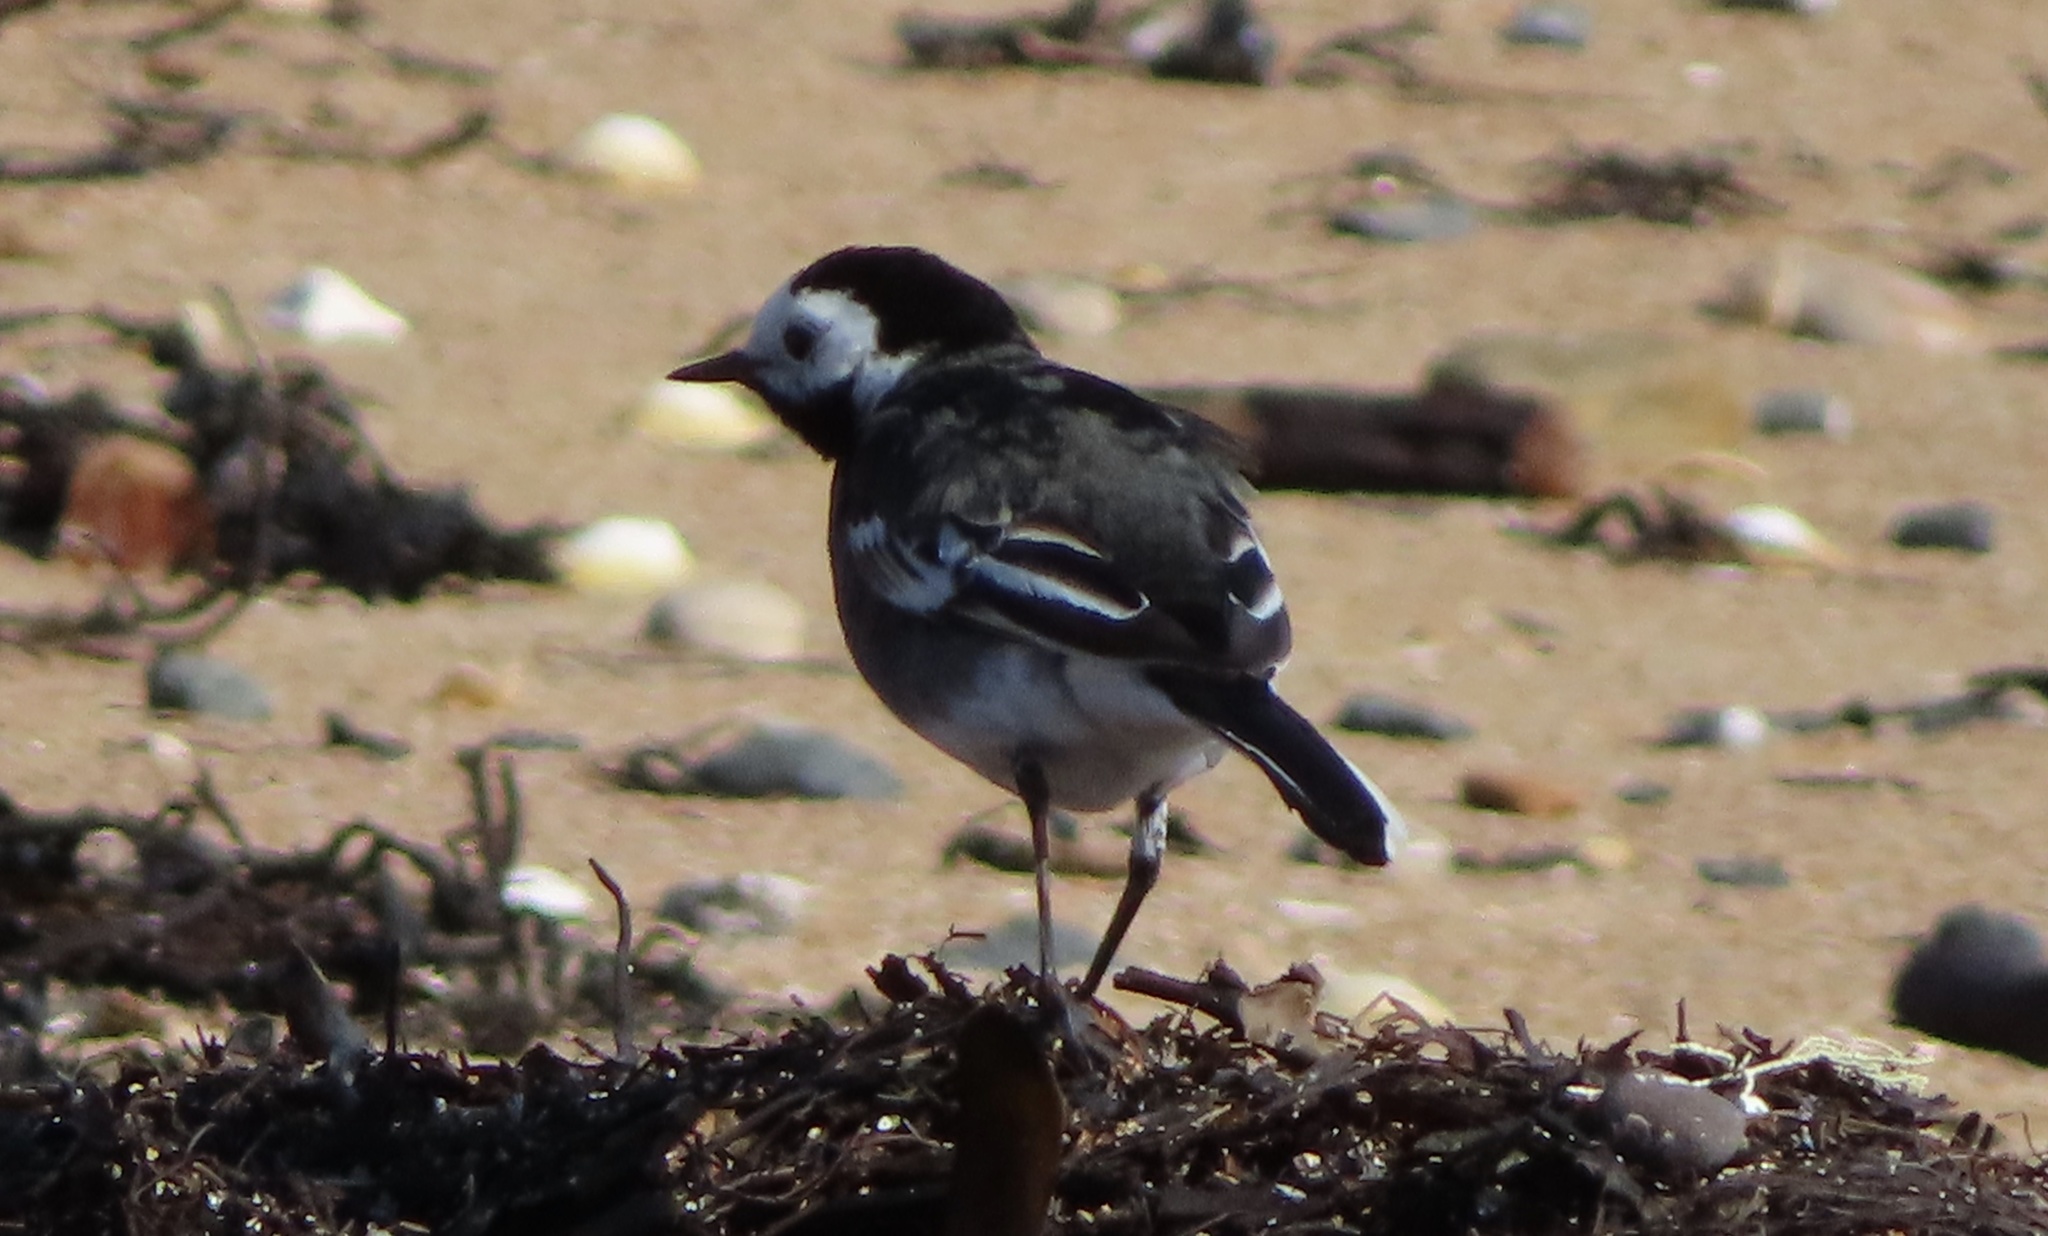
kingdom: Animalia
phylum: Chordata
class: Aves
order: Passeriformes
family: Motacillidae
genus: Motacilla
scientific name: Motacilla alba
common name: White wagtail
